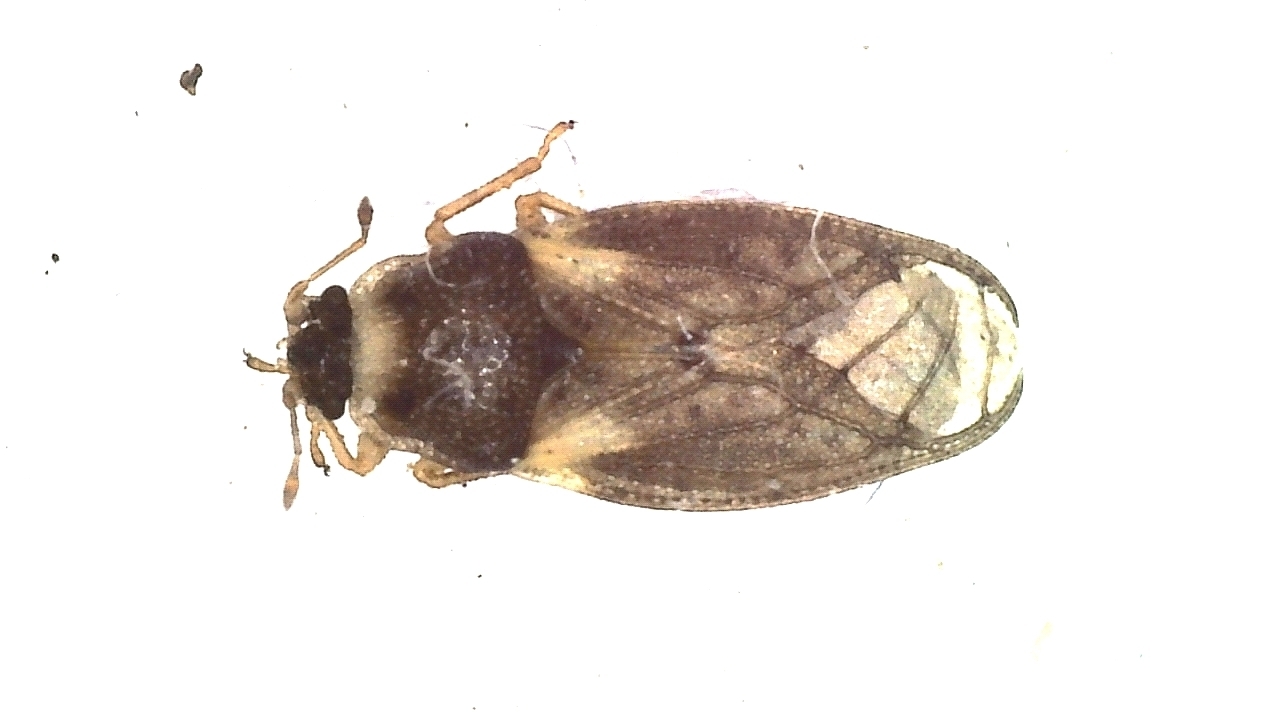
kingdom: Animalia
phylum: Arthropoda
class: Insecta
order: Hemiptera
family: Piesmatidae
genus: Piesma
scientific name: Piesma capitata
